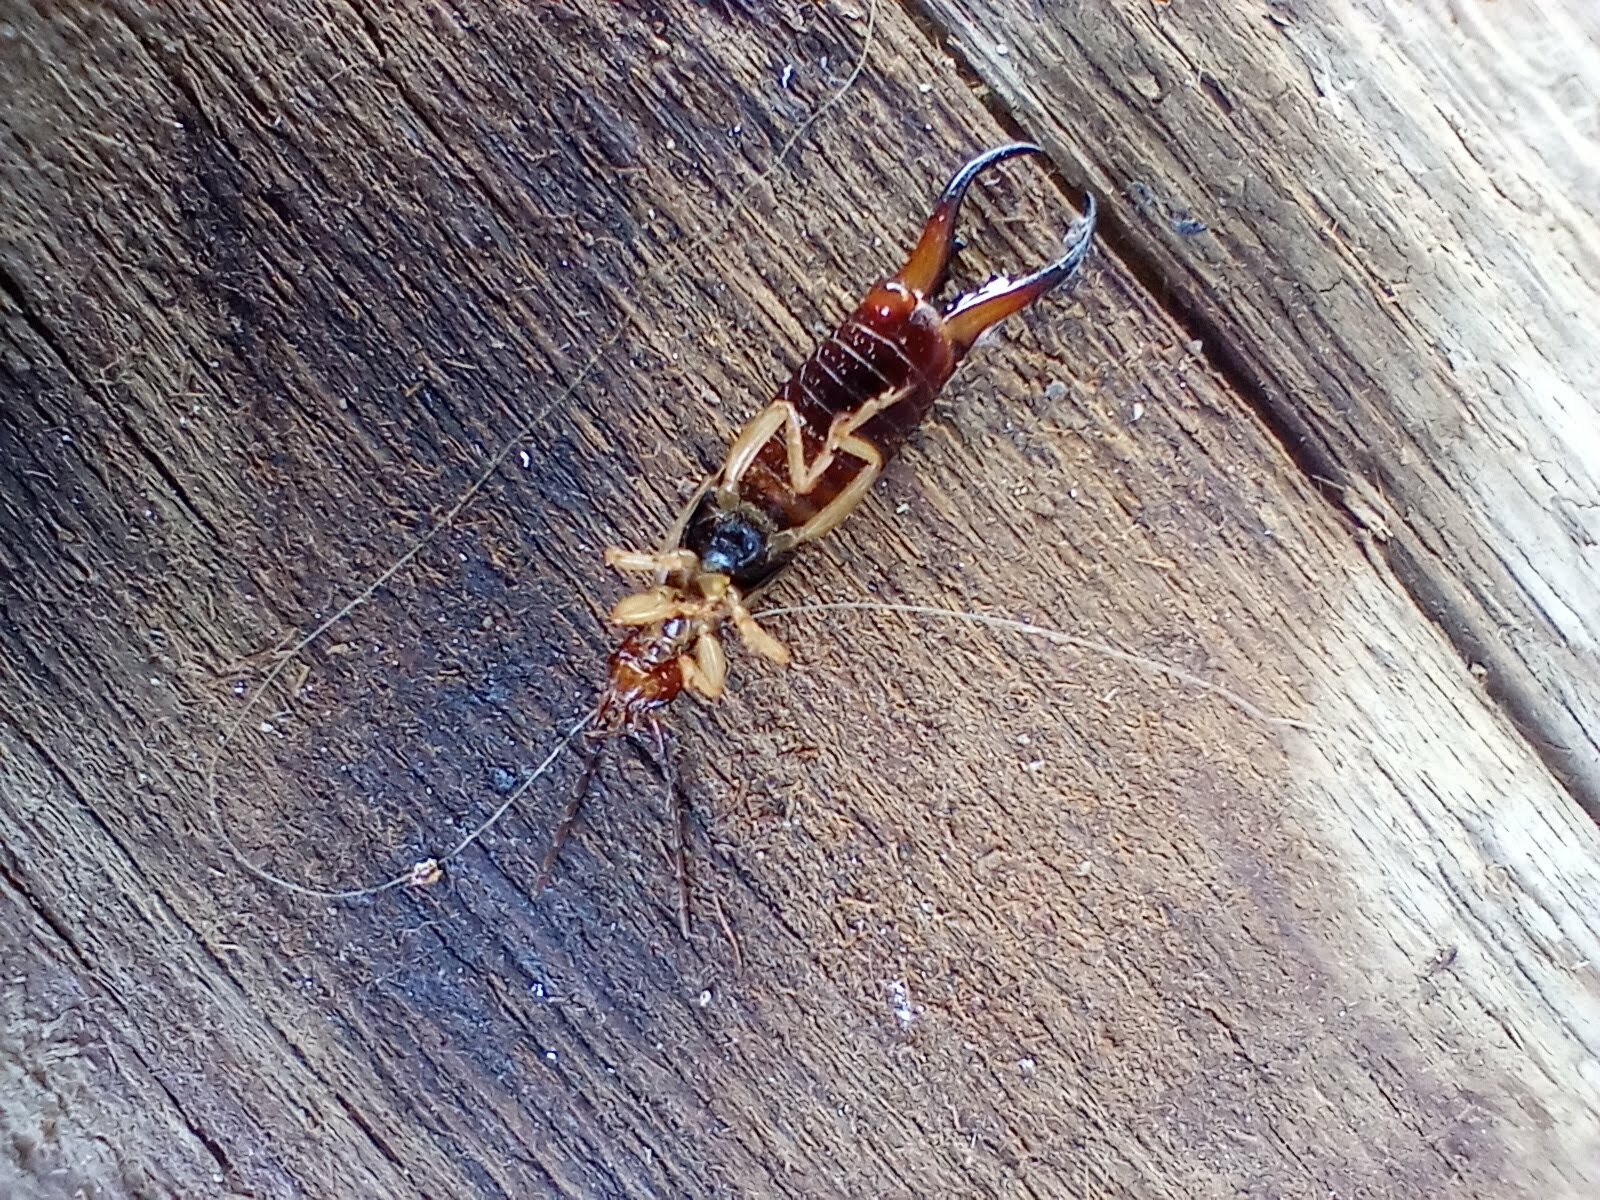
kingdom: Animalia
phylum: Arthropoda
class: Insecta
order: Dermaptera
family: Forficulidae
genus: Forficula
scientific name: Forficula
